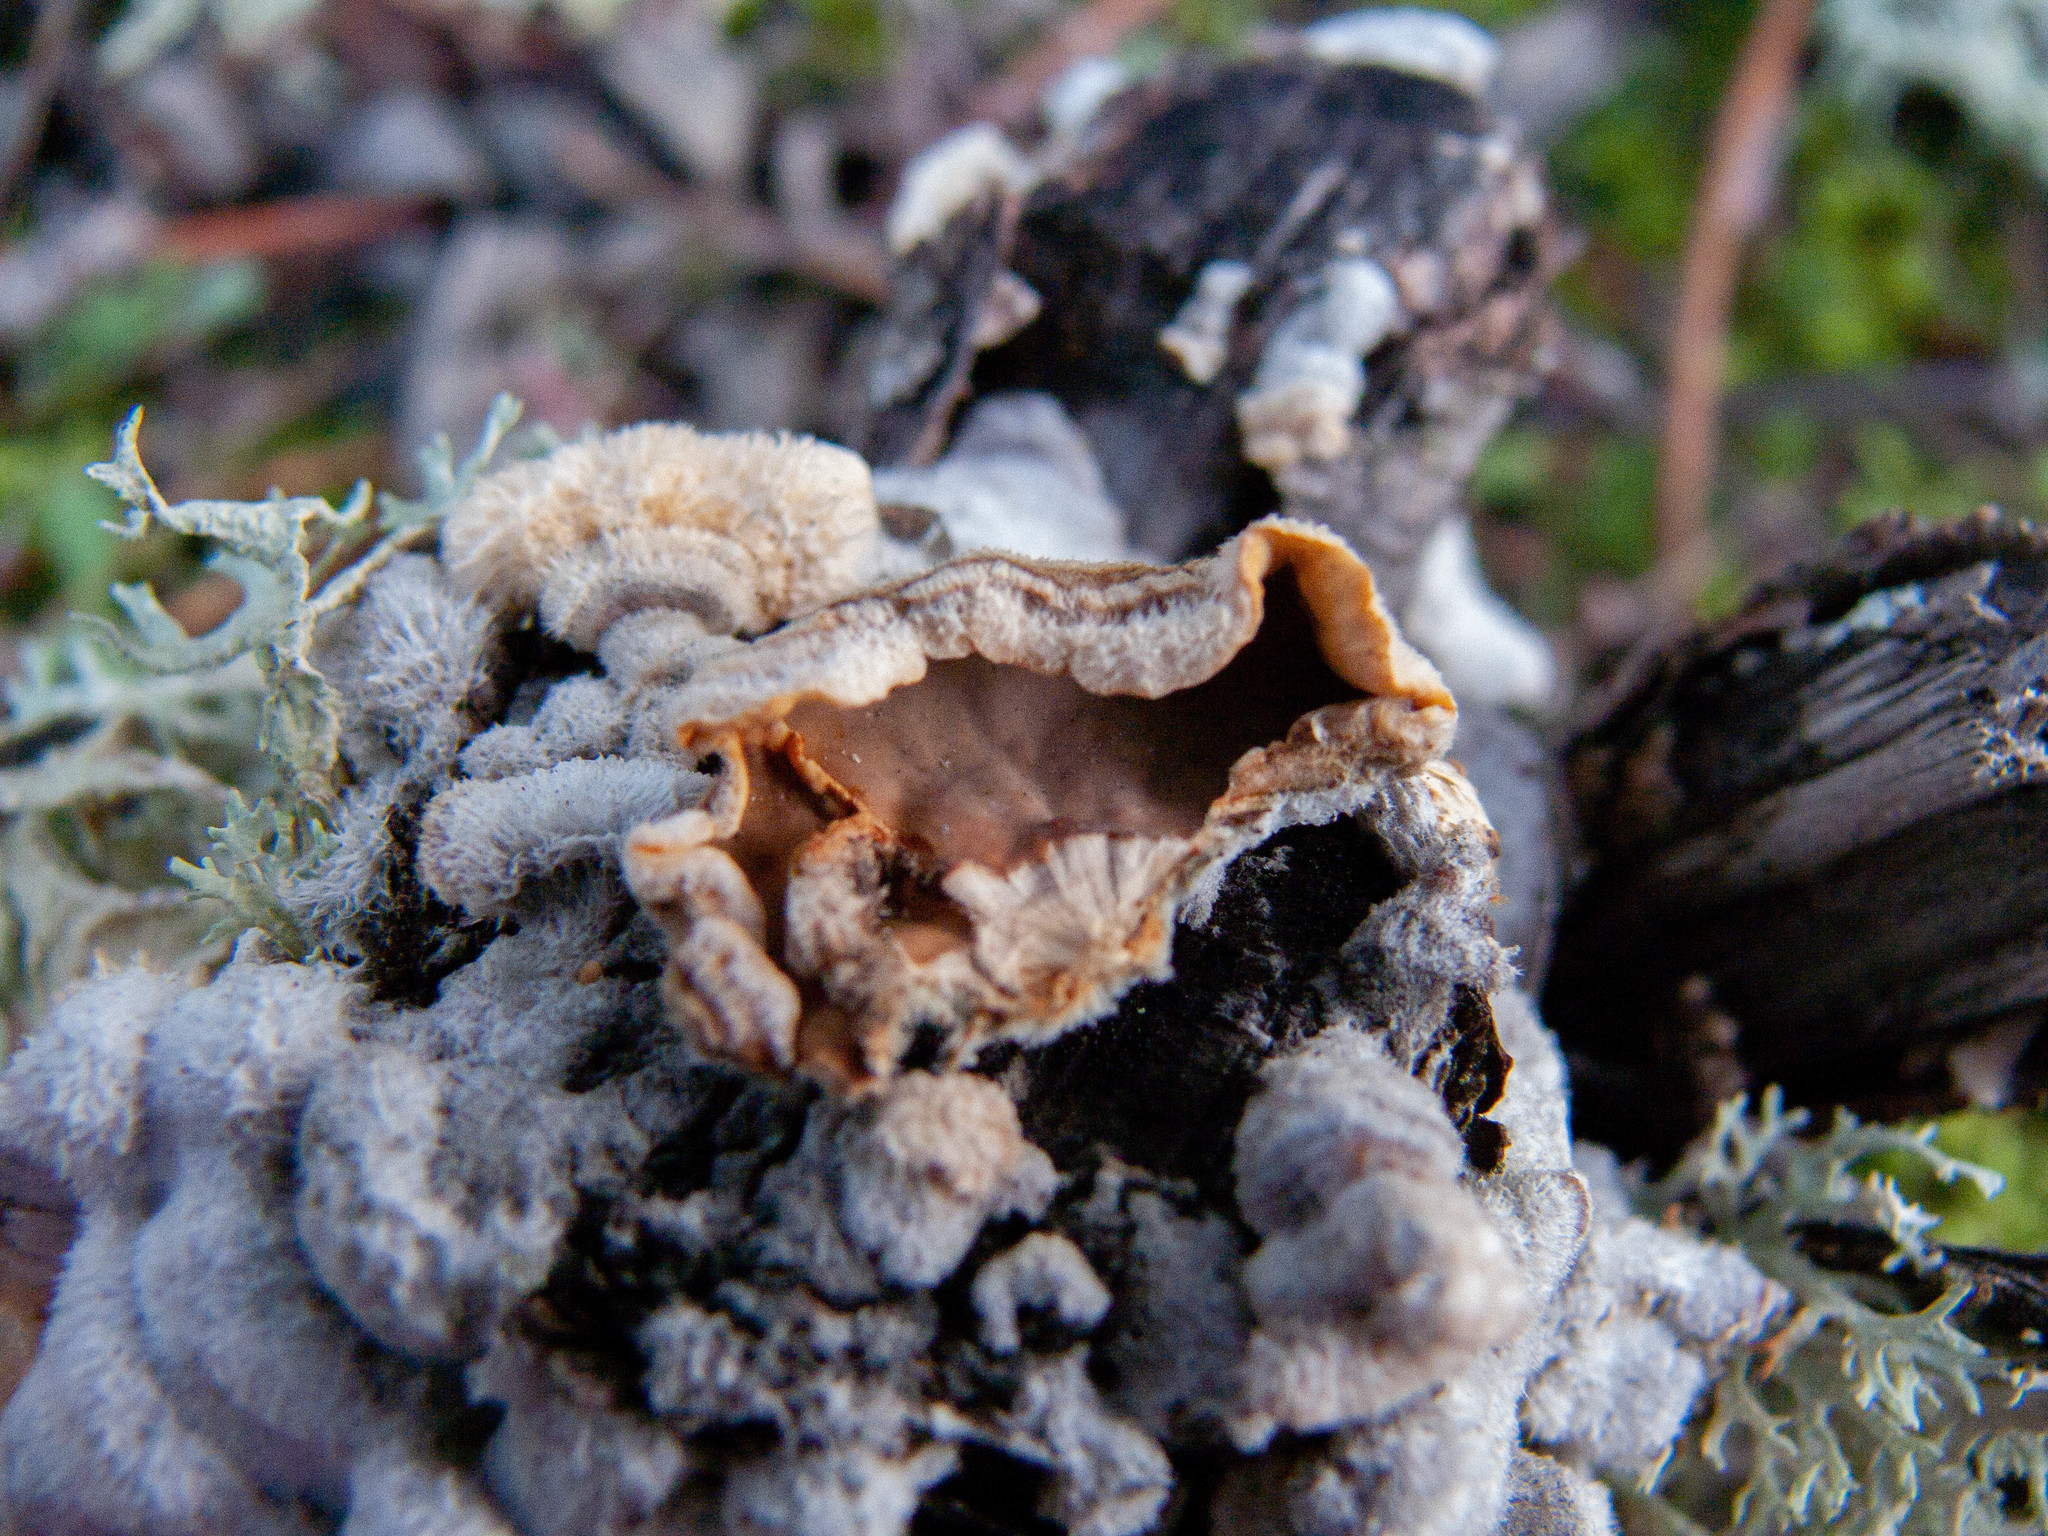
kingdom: Fungi
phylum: Ascomycota
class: Lecanoromycetes
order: Lecanorales
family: Parmeliaceae
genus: Evernia
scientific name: Evernia prunastri
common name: Oak moss
